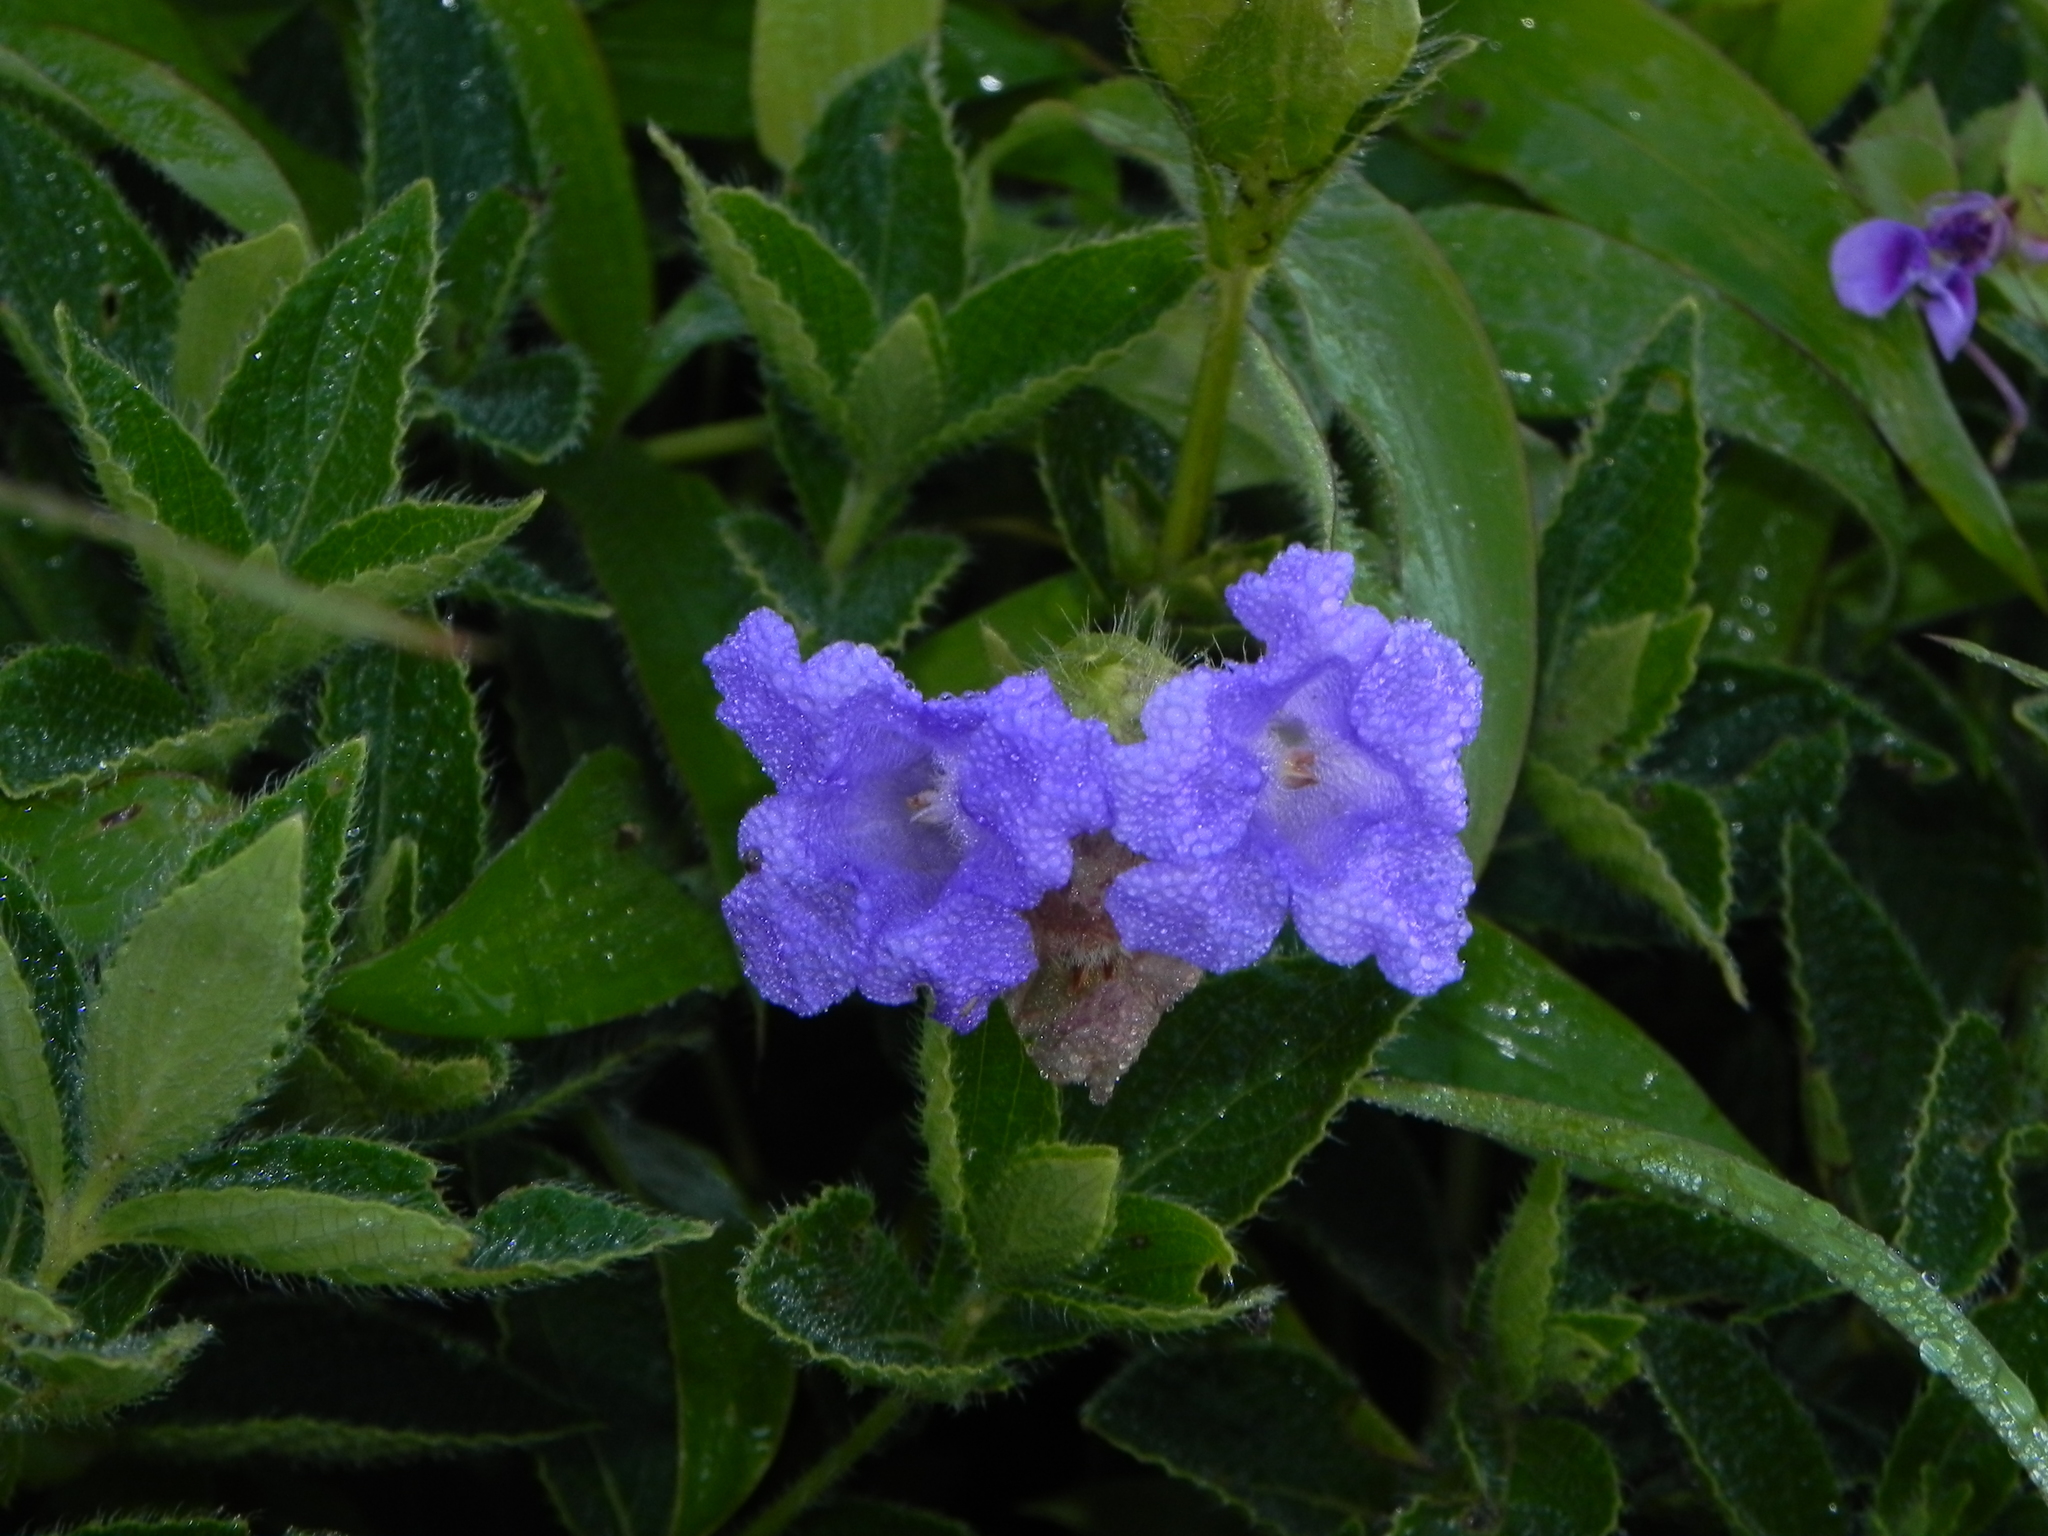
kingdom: Plantae
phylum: Tracheophyta
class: Magnoliopsida
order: Lamiales
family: Acanthaceae
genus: Strobilanthes
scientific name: Strobilanthes sessilis
